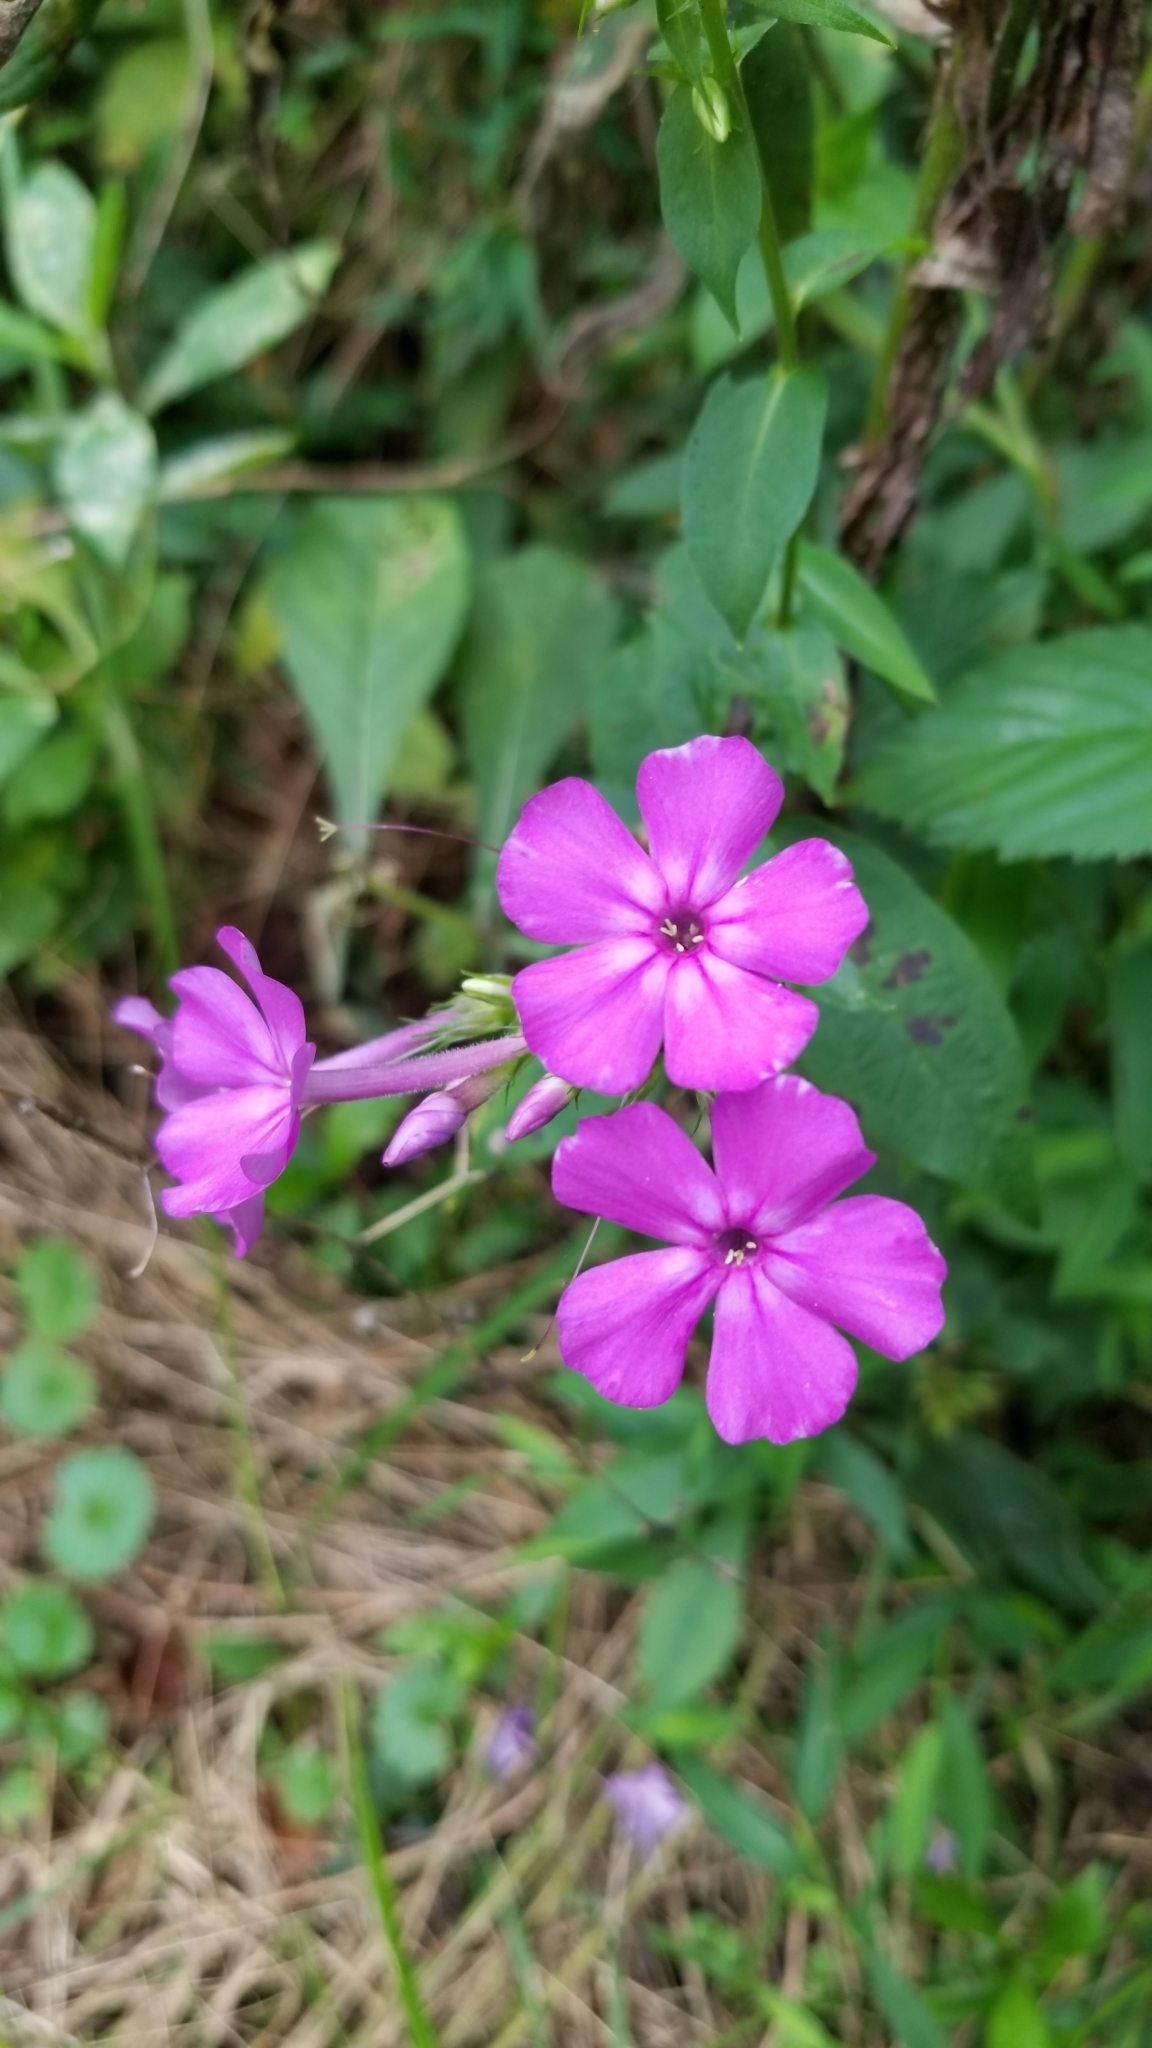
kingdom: Plantae
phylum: Tracheophyta
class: Magnoliopsida
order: Ericales
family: Polemoniaceae
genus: Phlox
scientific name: Phlox paniculata
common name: Fall phlox
